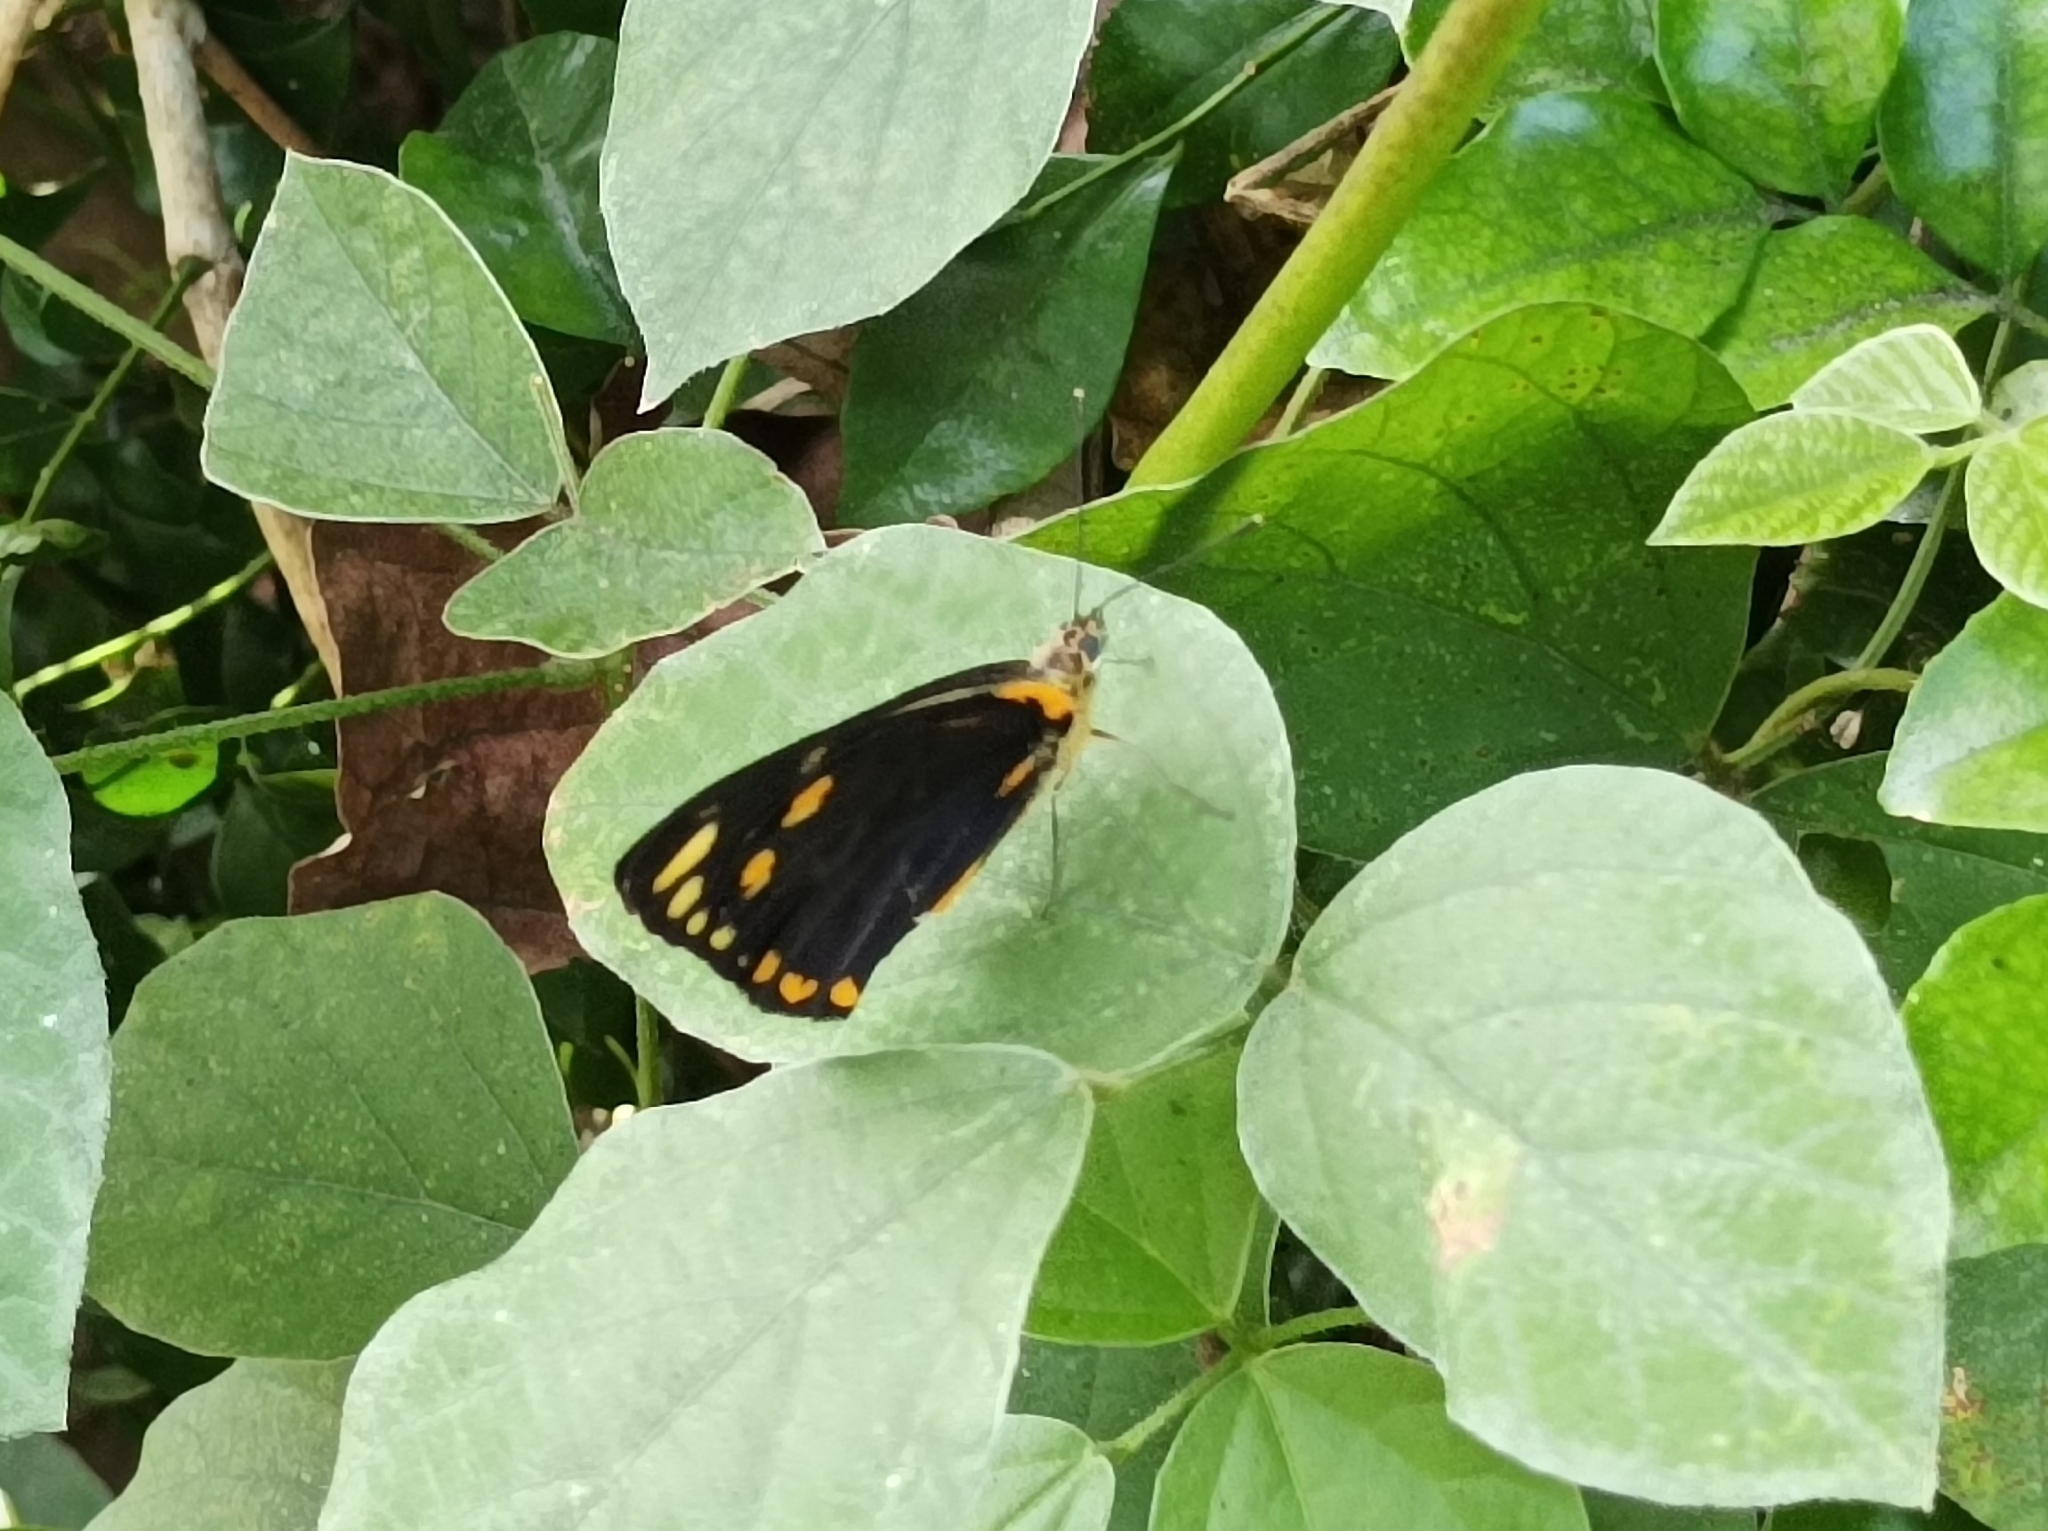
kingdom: Animalia
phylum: Arthropoda
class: Insecta
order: Lepidoptera
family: Pieridae
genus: Belenois
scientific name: Belenois java
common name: Caper white
